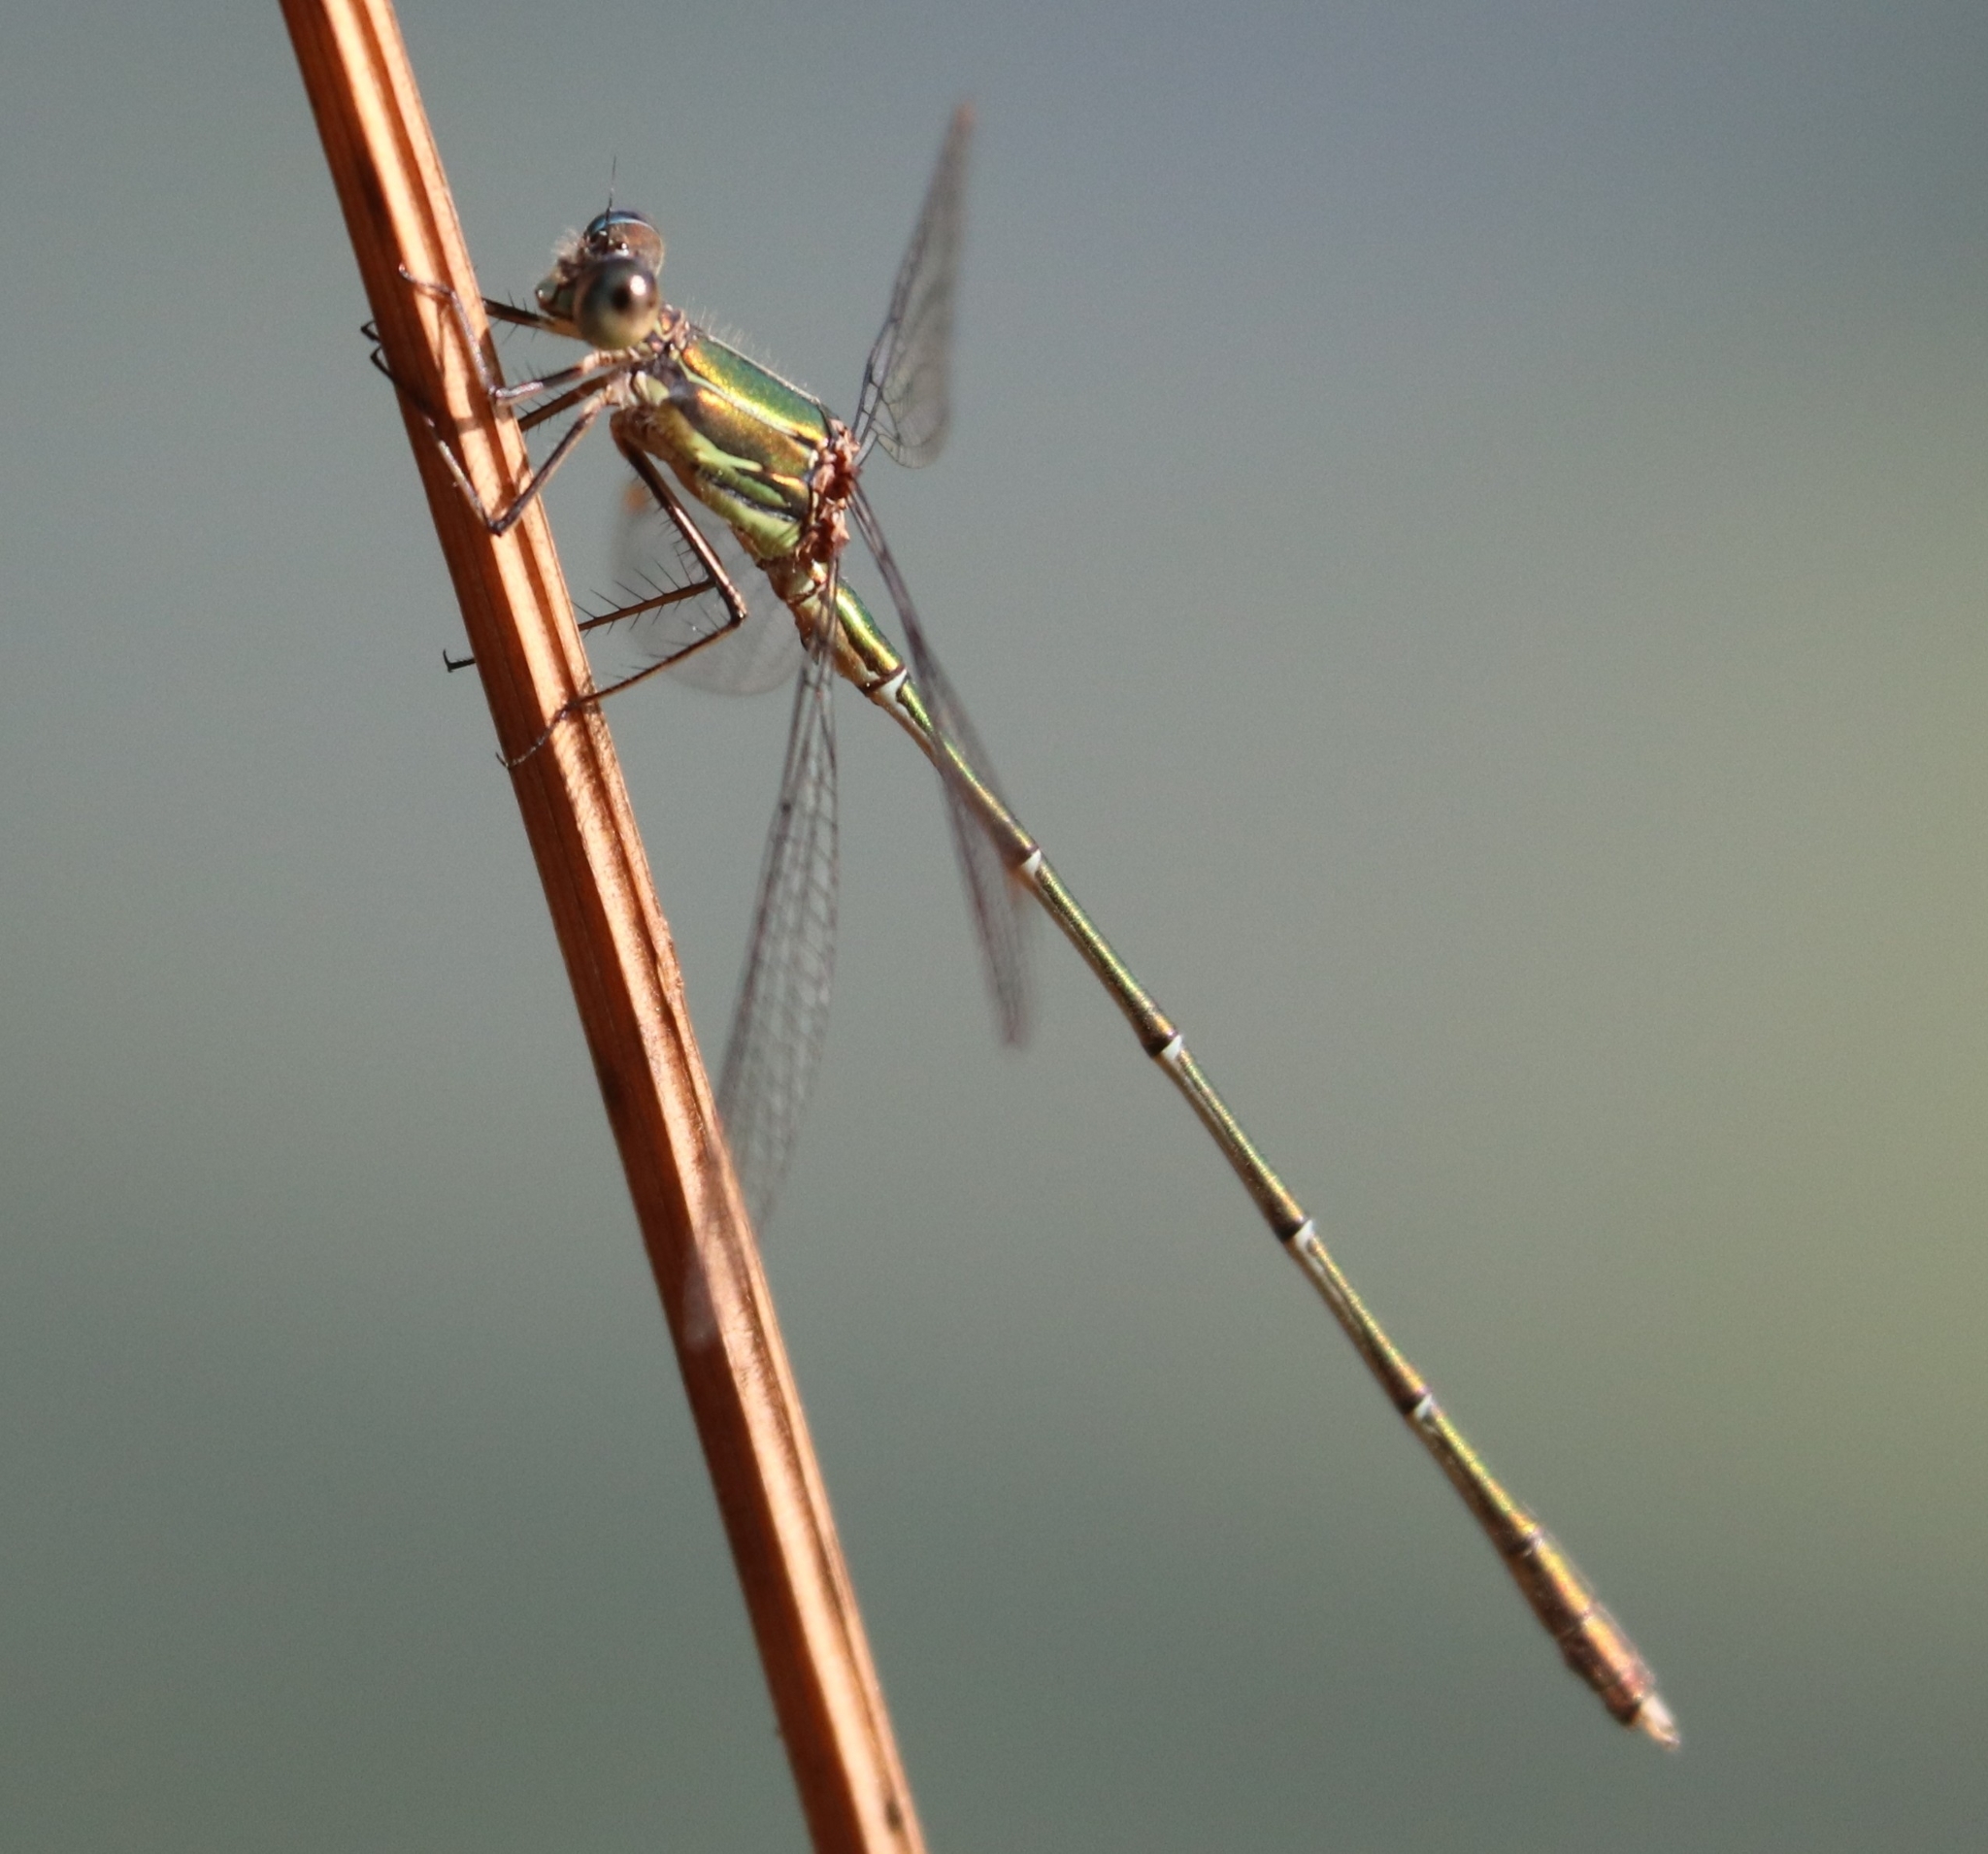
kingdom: Animalia
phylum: Arthropoda
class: Insecta
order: Odonata
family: Lestidae
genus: Chalcolestes
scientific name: Chalcolestes viridis
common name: Green emerald damselfly
